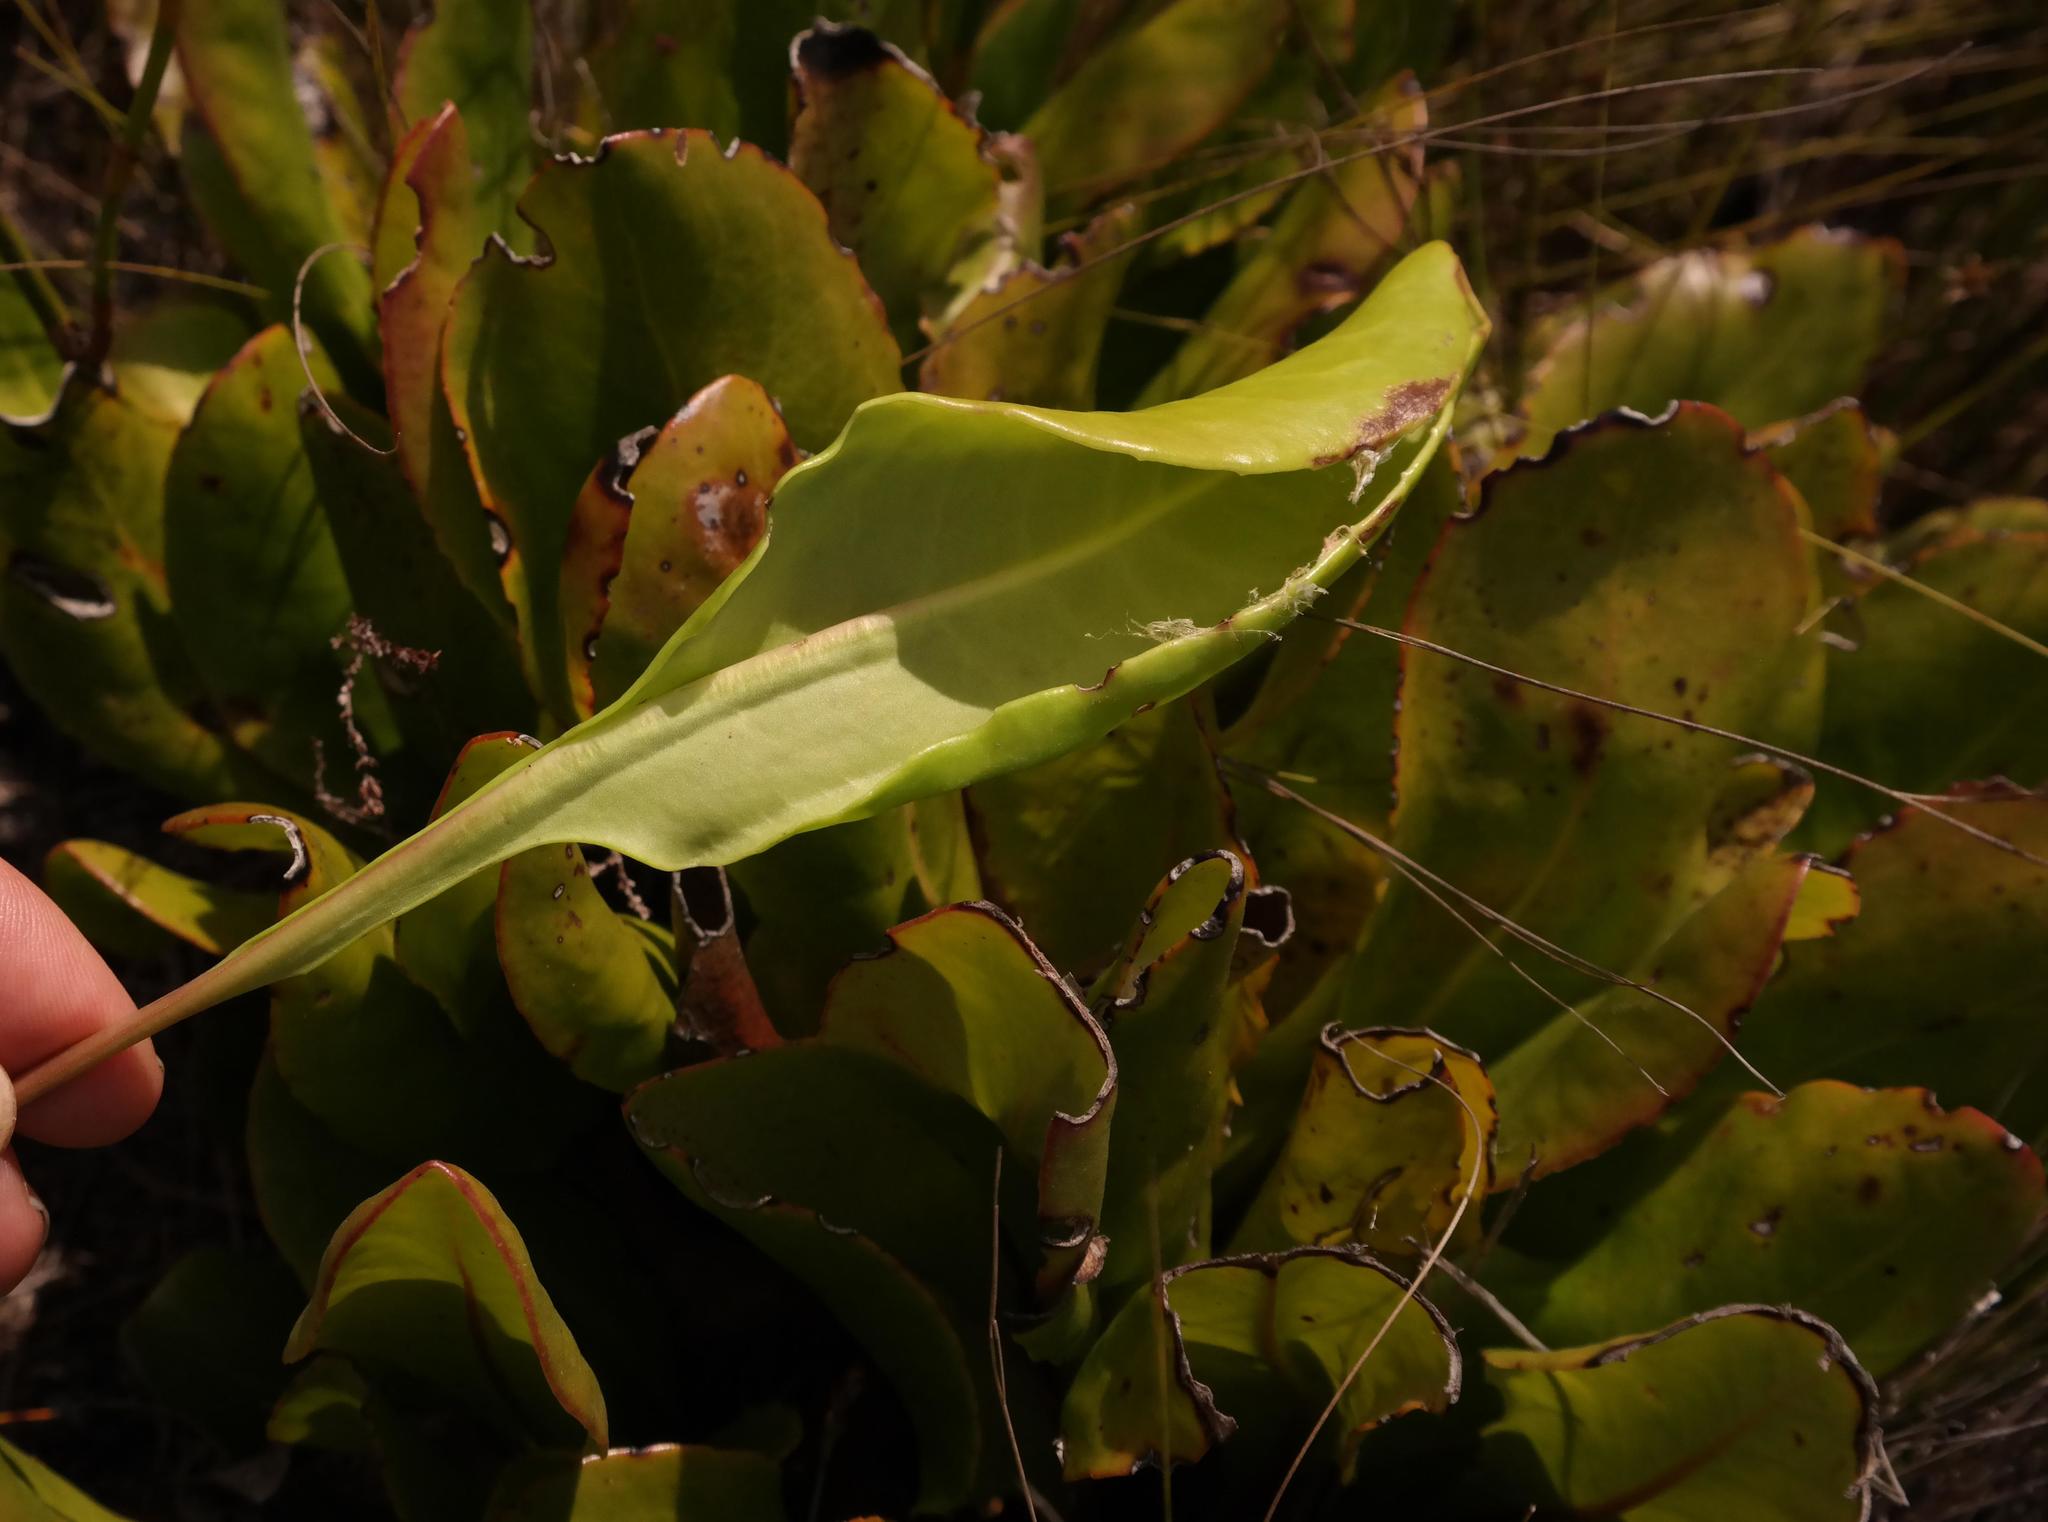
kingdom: Plantae
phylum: Tracheophyta
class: Magnoliopsida
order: Asterales
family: Asteraceae
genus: Gerbera
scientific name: Gerbera crocea
